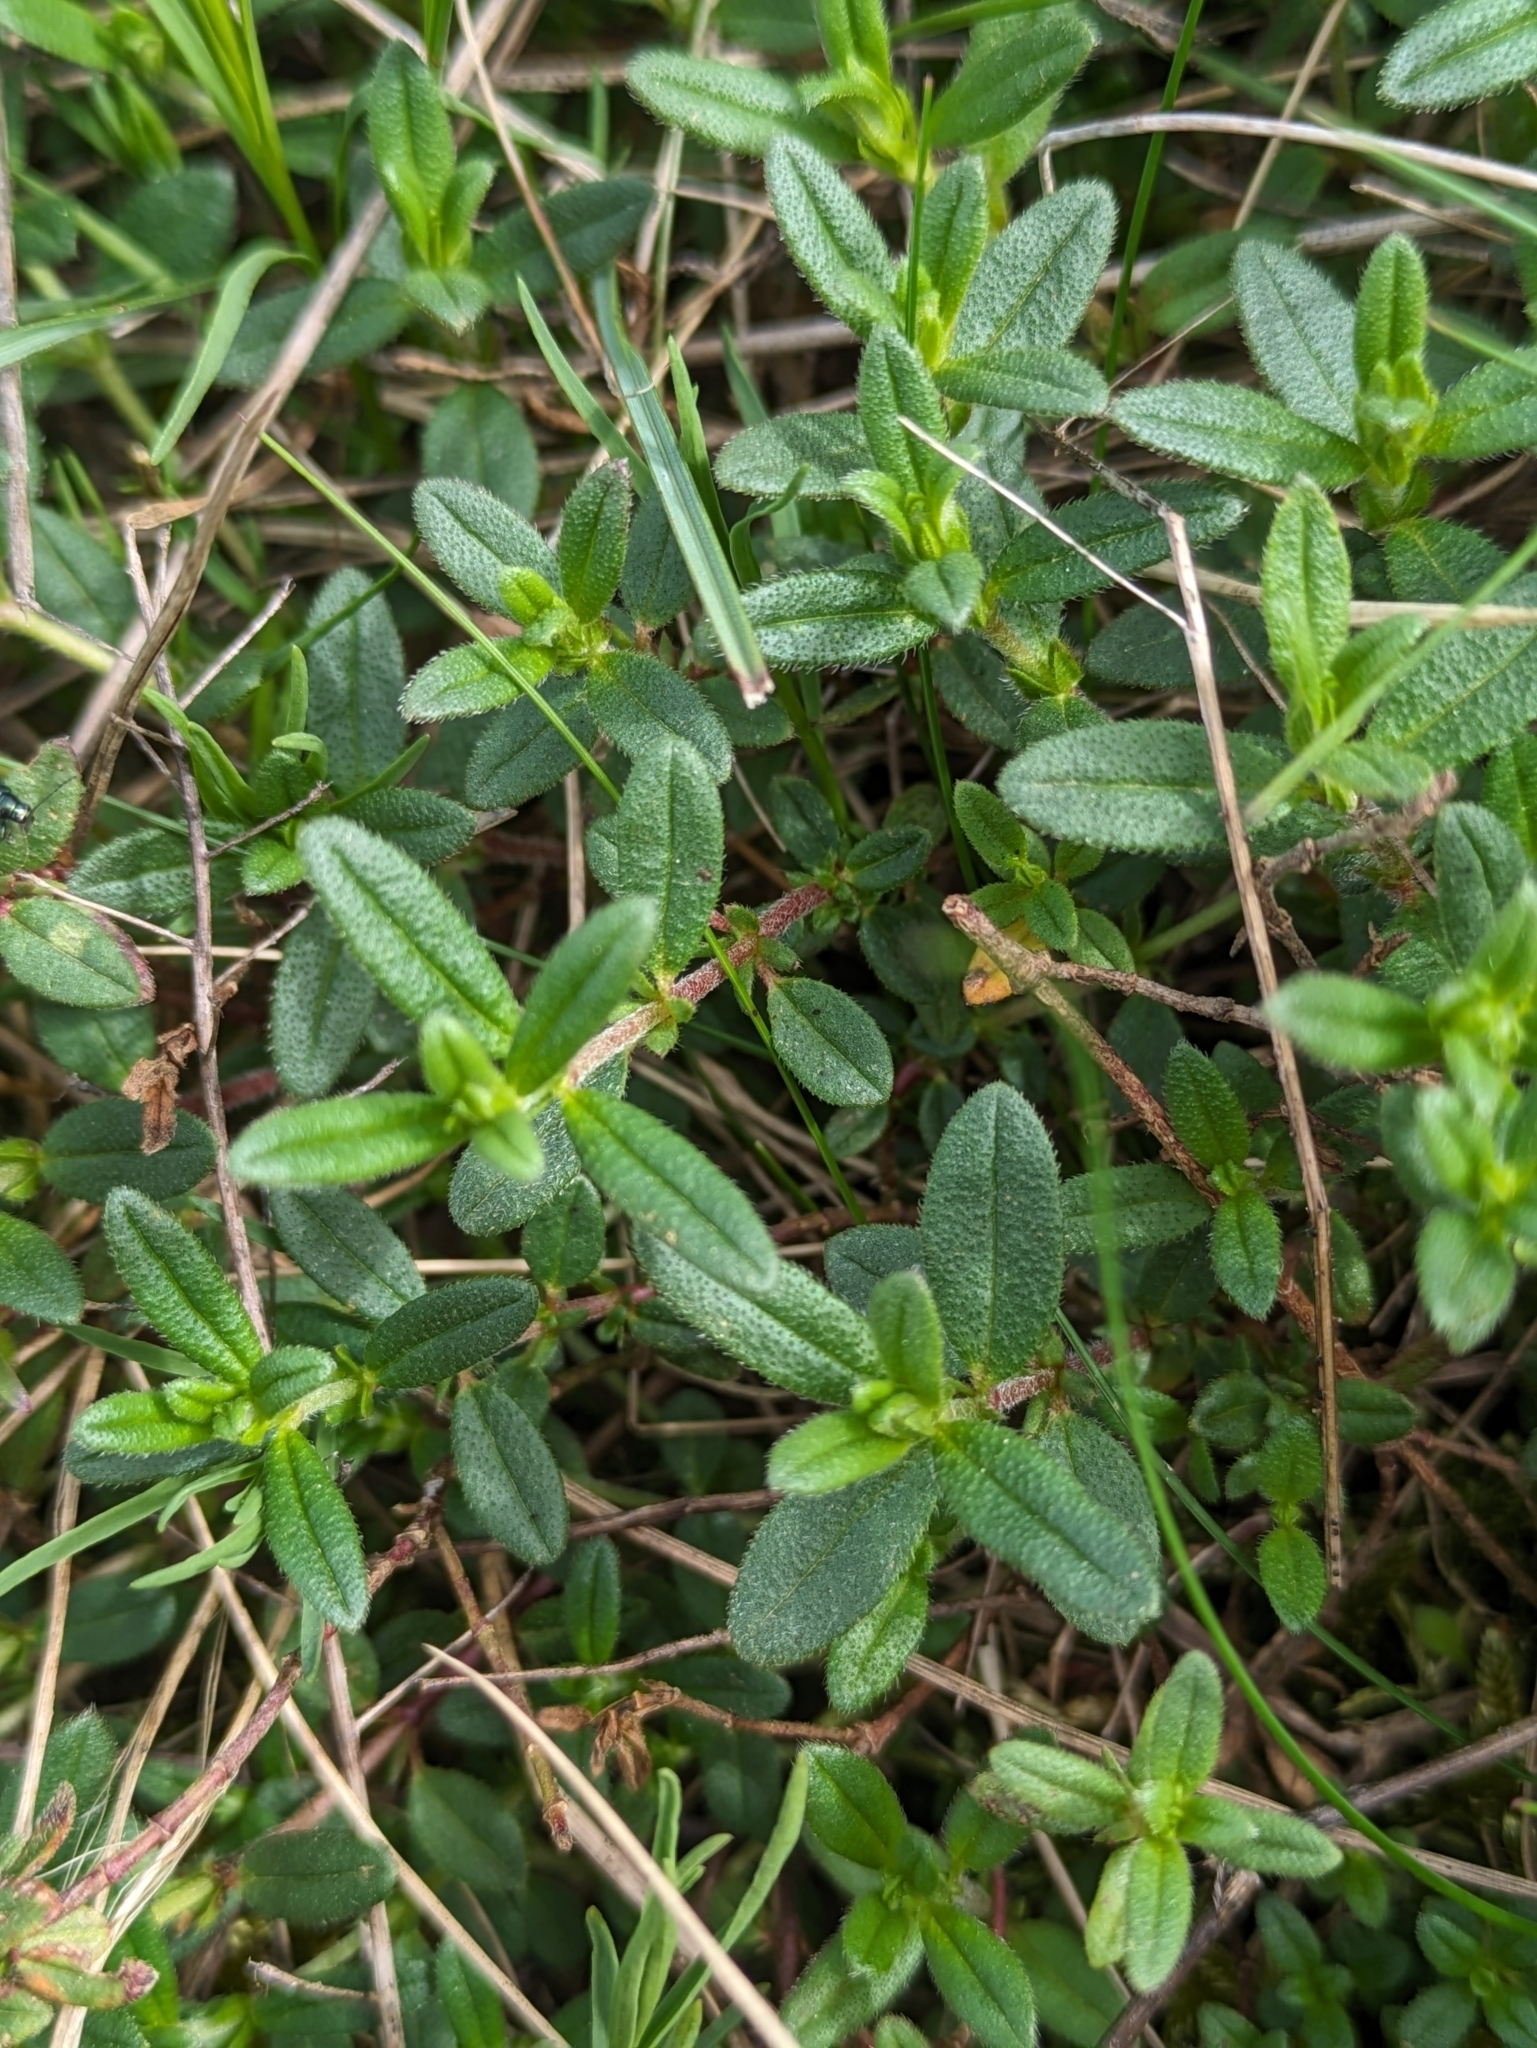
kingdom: Plantae
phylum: Tracheophyta
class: Magnoliopsida
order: Malvales
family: Cistaceae
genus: Helianthemum
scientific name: Helianthemum nummularium
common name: Common rock-rose
